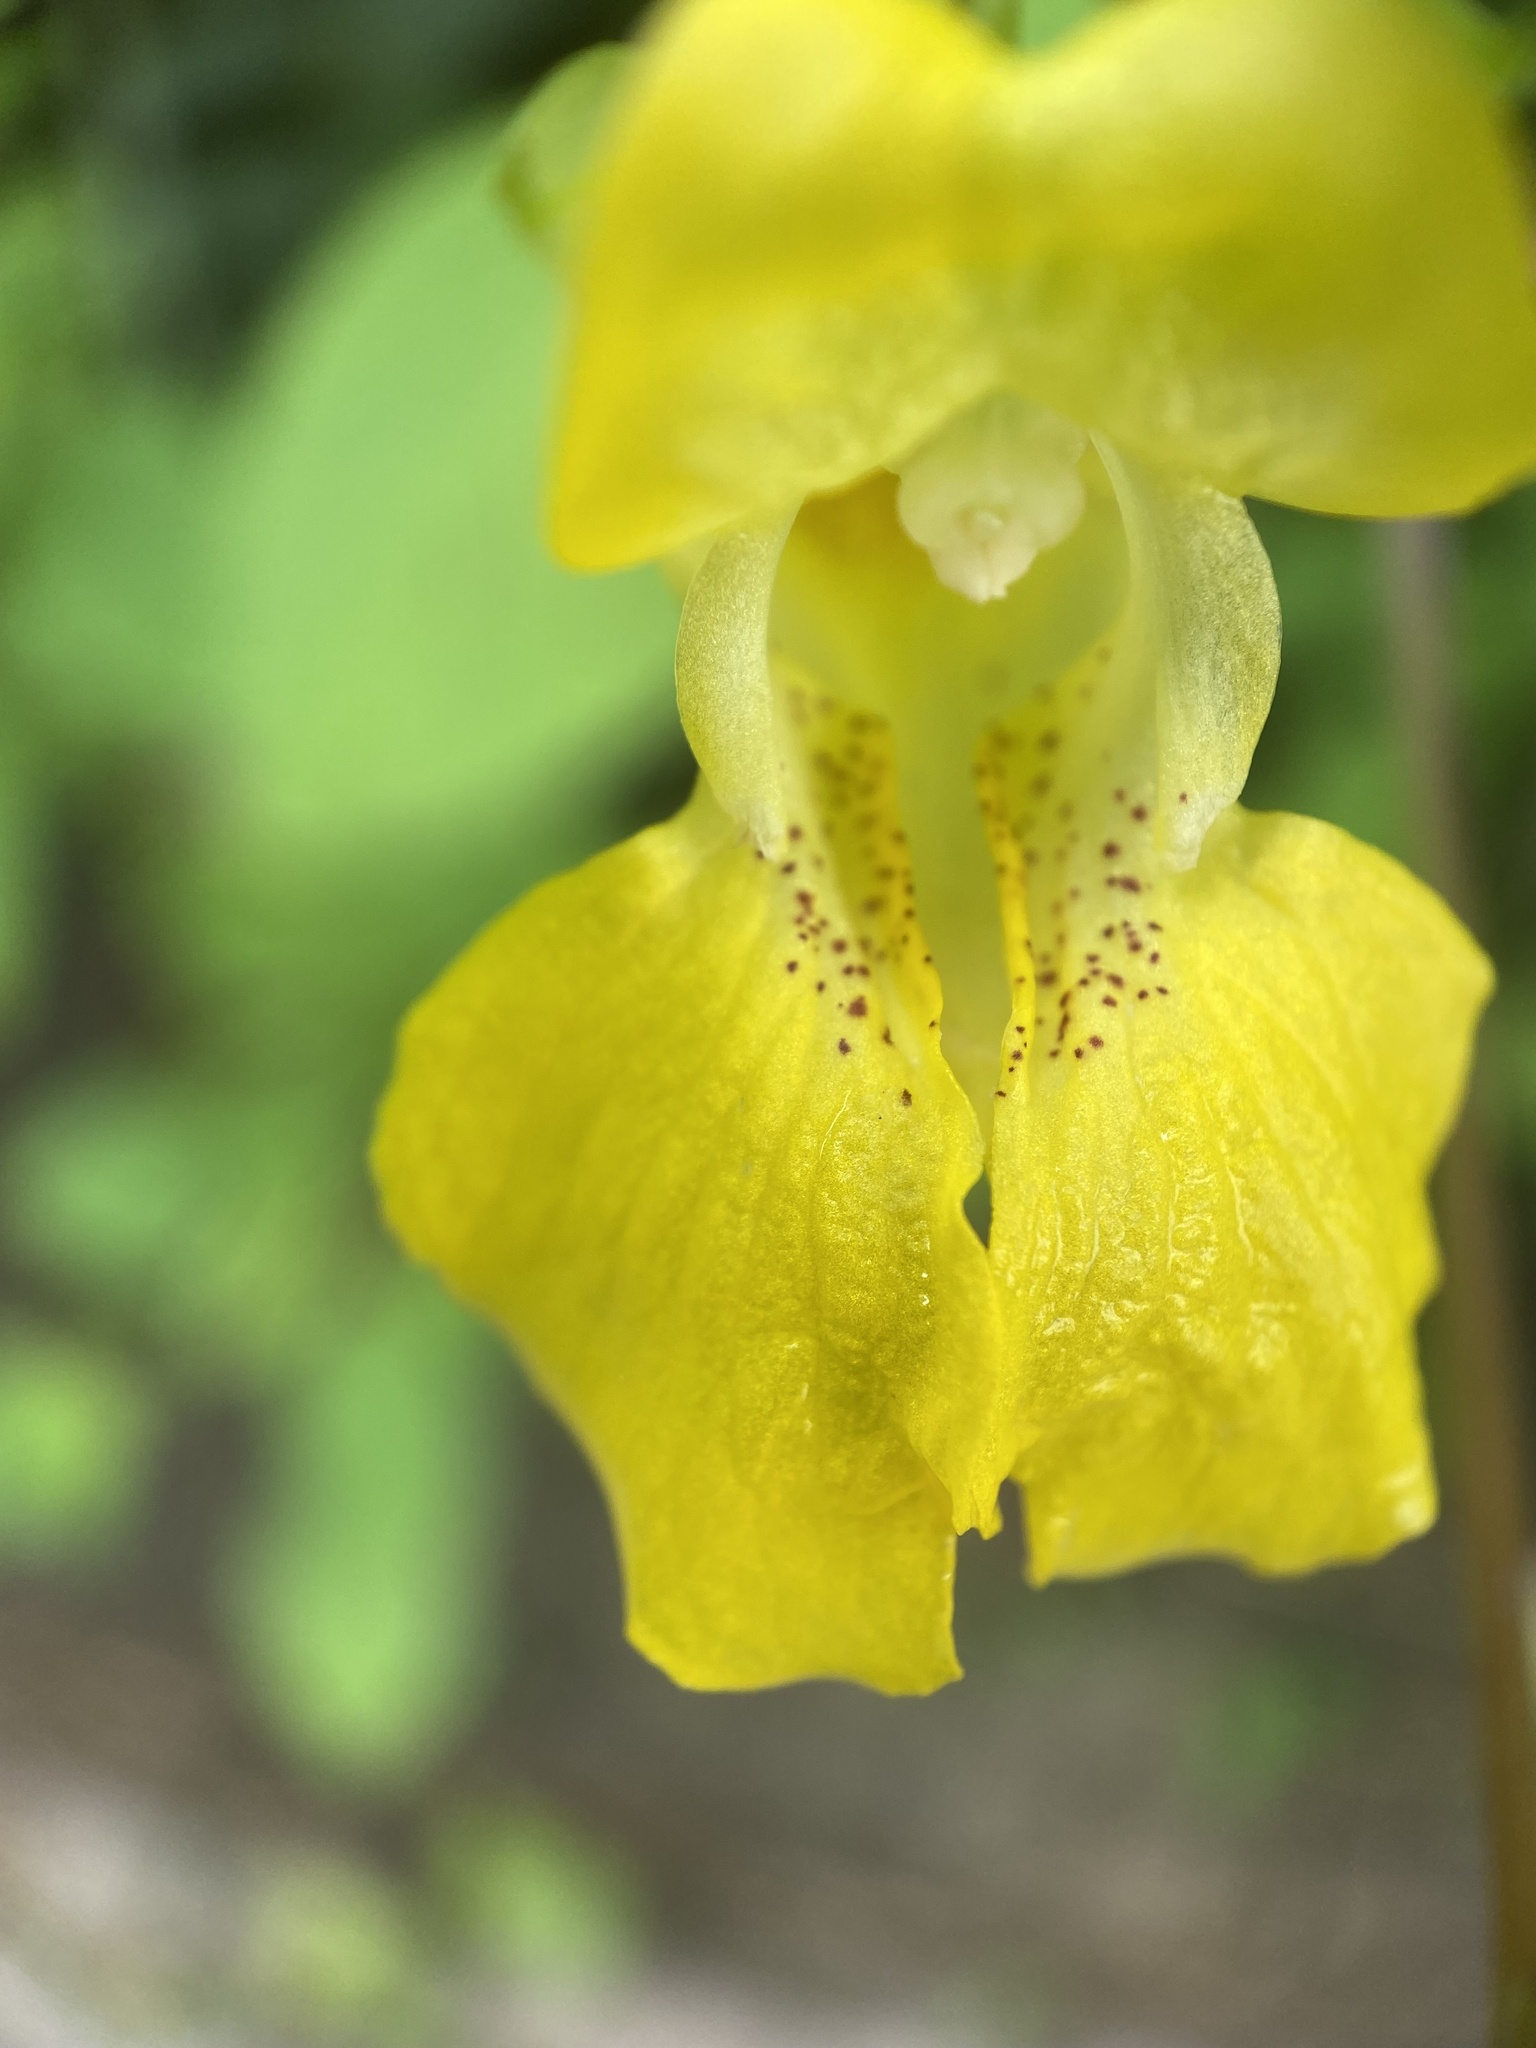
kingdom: Plantae
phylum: Tracheophyta
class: Magnoliopsida
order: Ericales
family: Balsaminaceae
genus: Impatiens
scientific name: Impatiens pallida
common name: Pale snapweed
